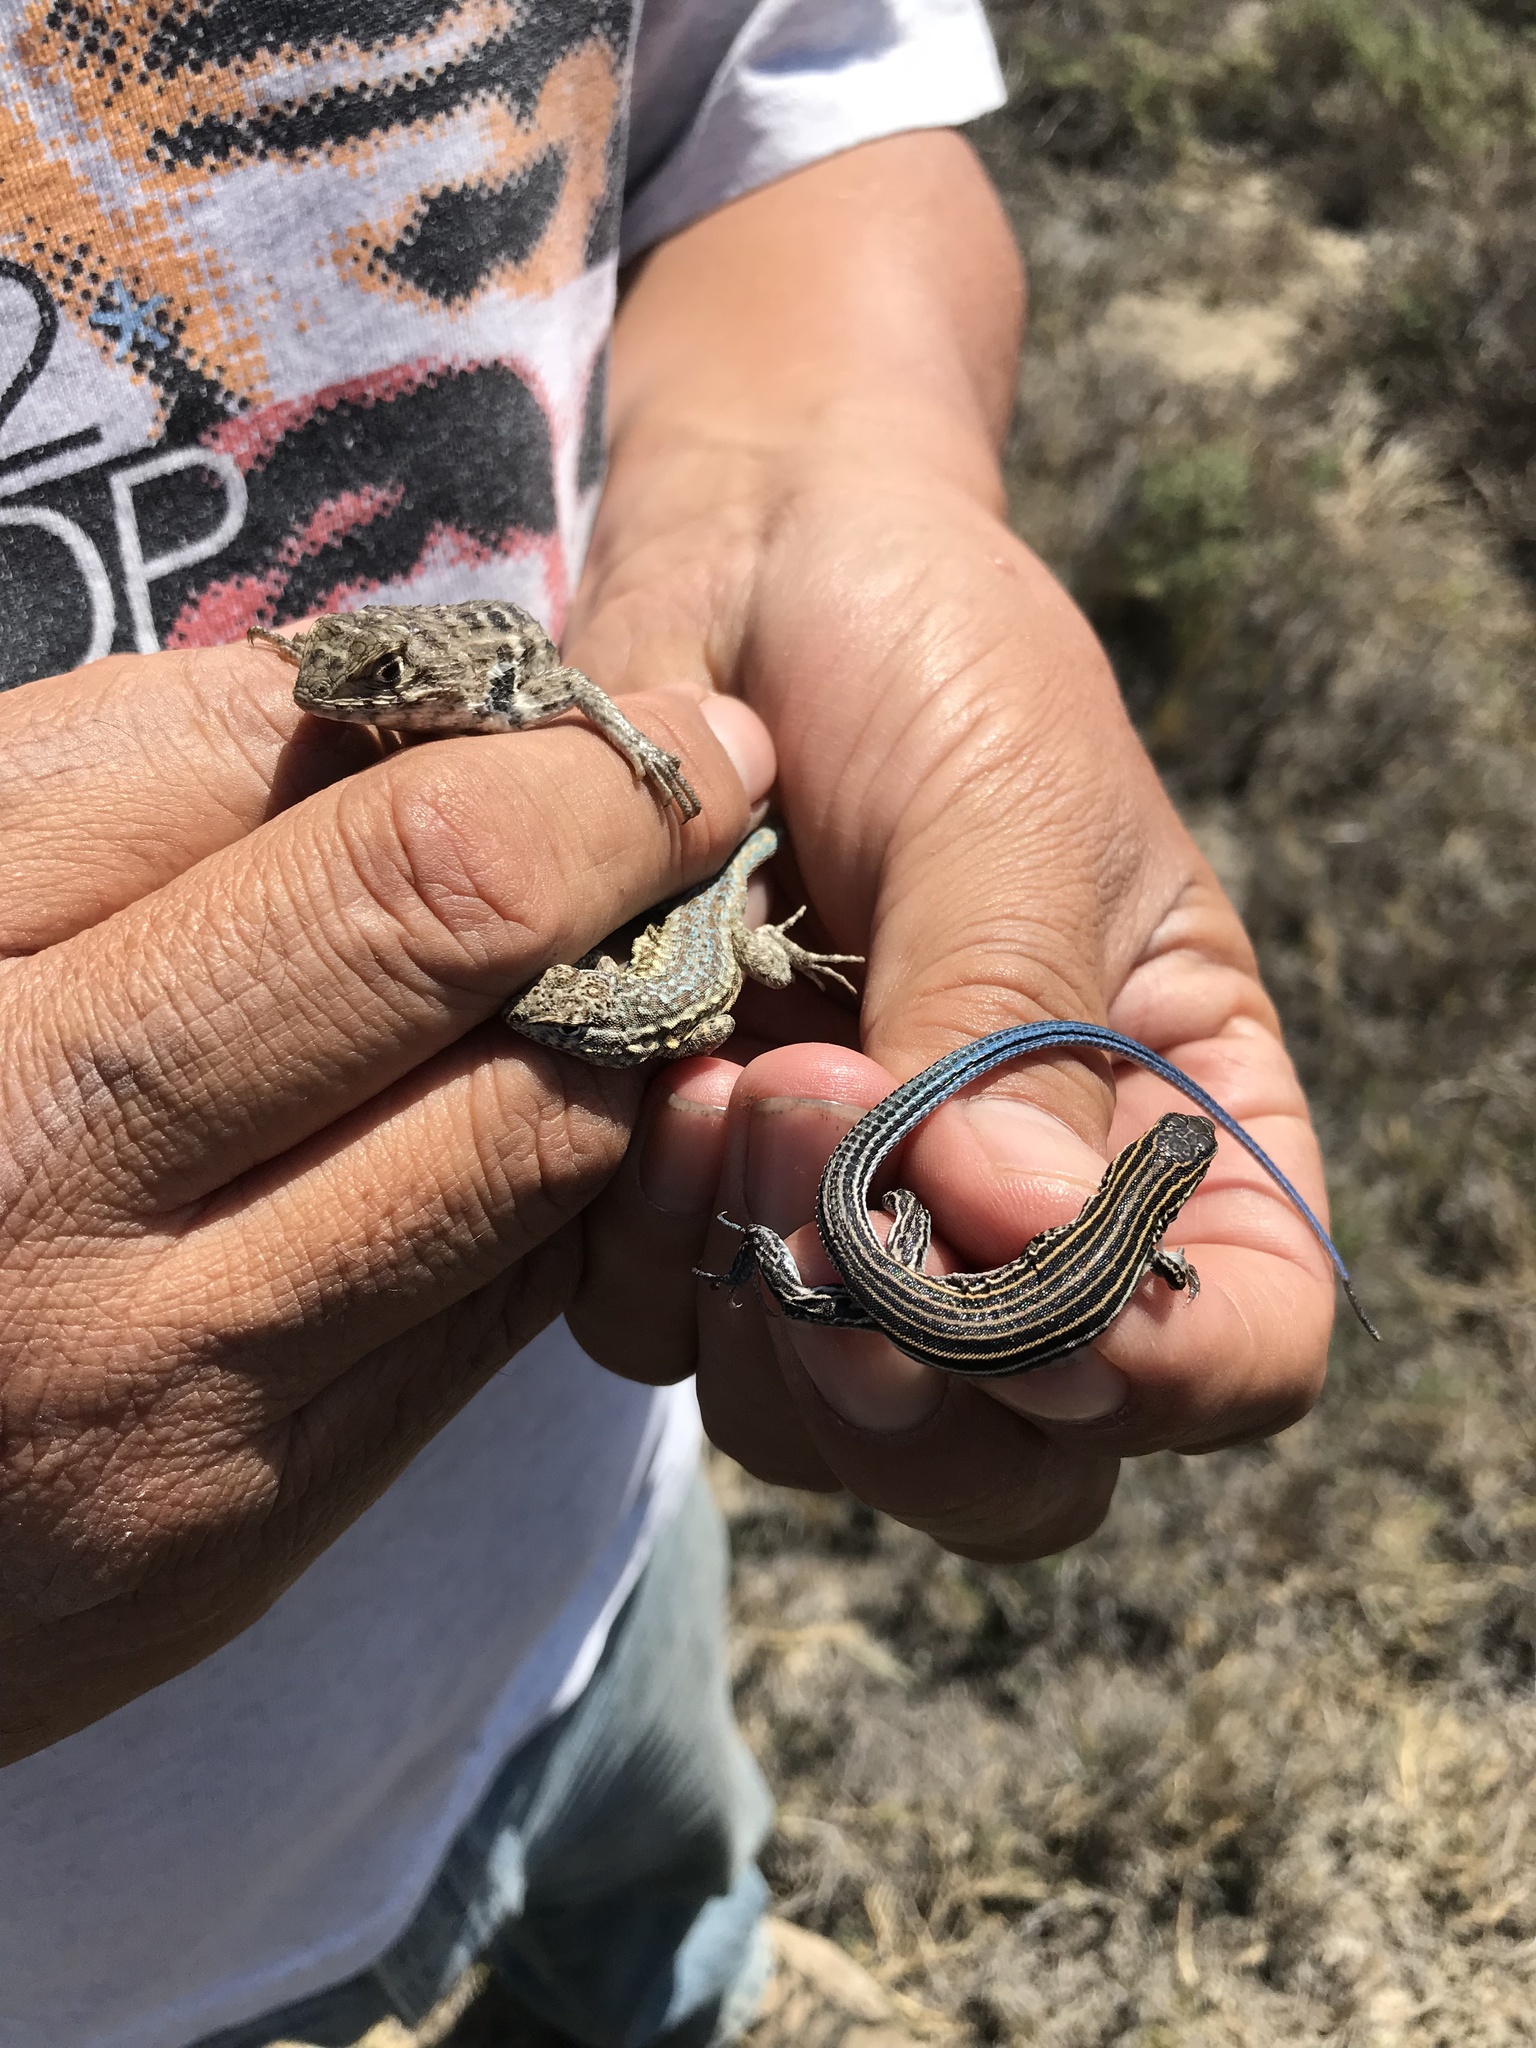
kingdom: Animalia
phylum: Chordata
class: Squamata
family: Teiidae
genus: Aspidoscelis
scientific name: Aspidoscelis labialis
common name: Baja california whiptail
